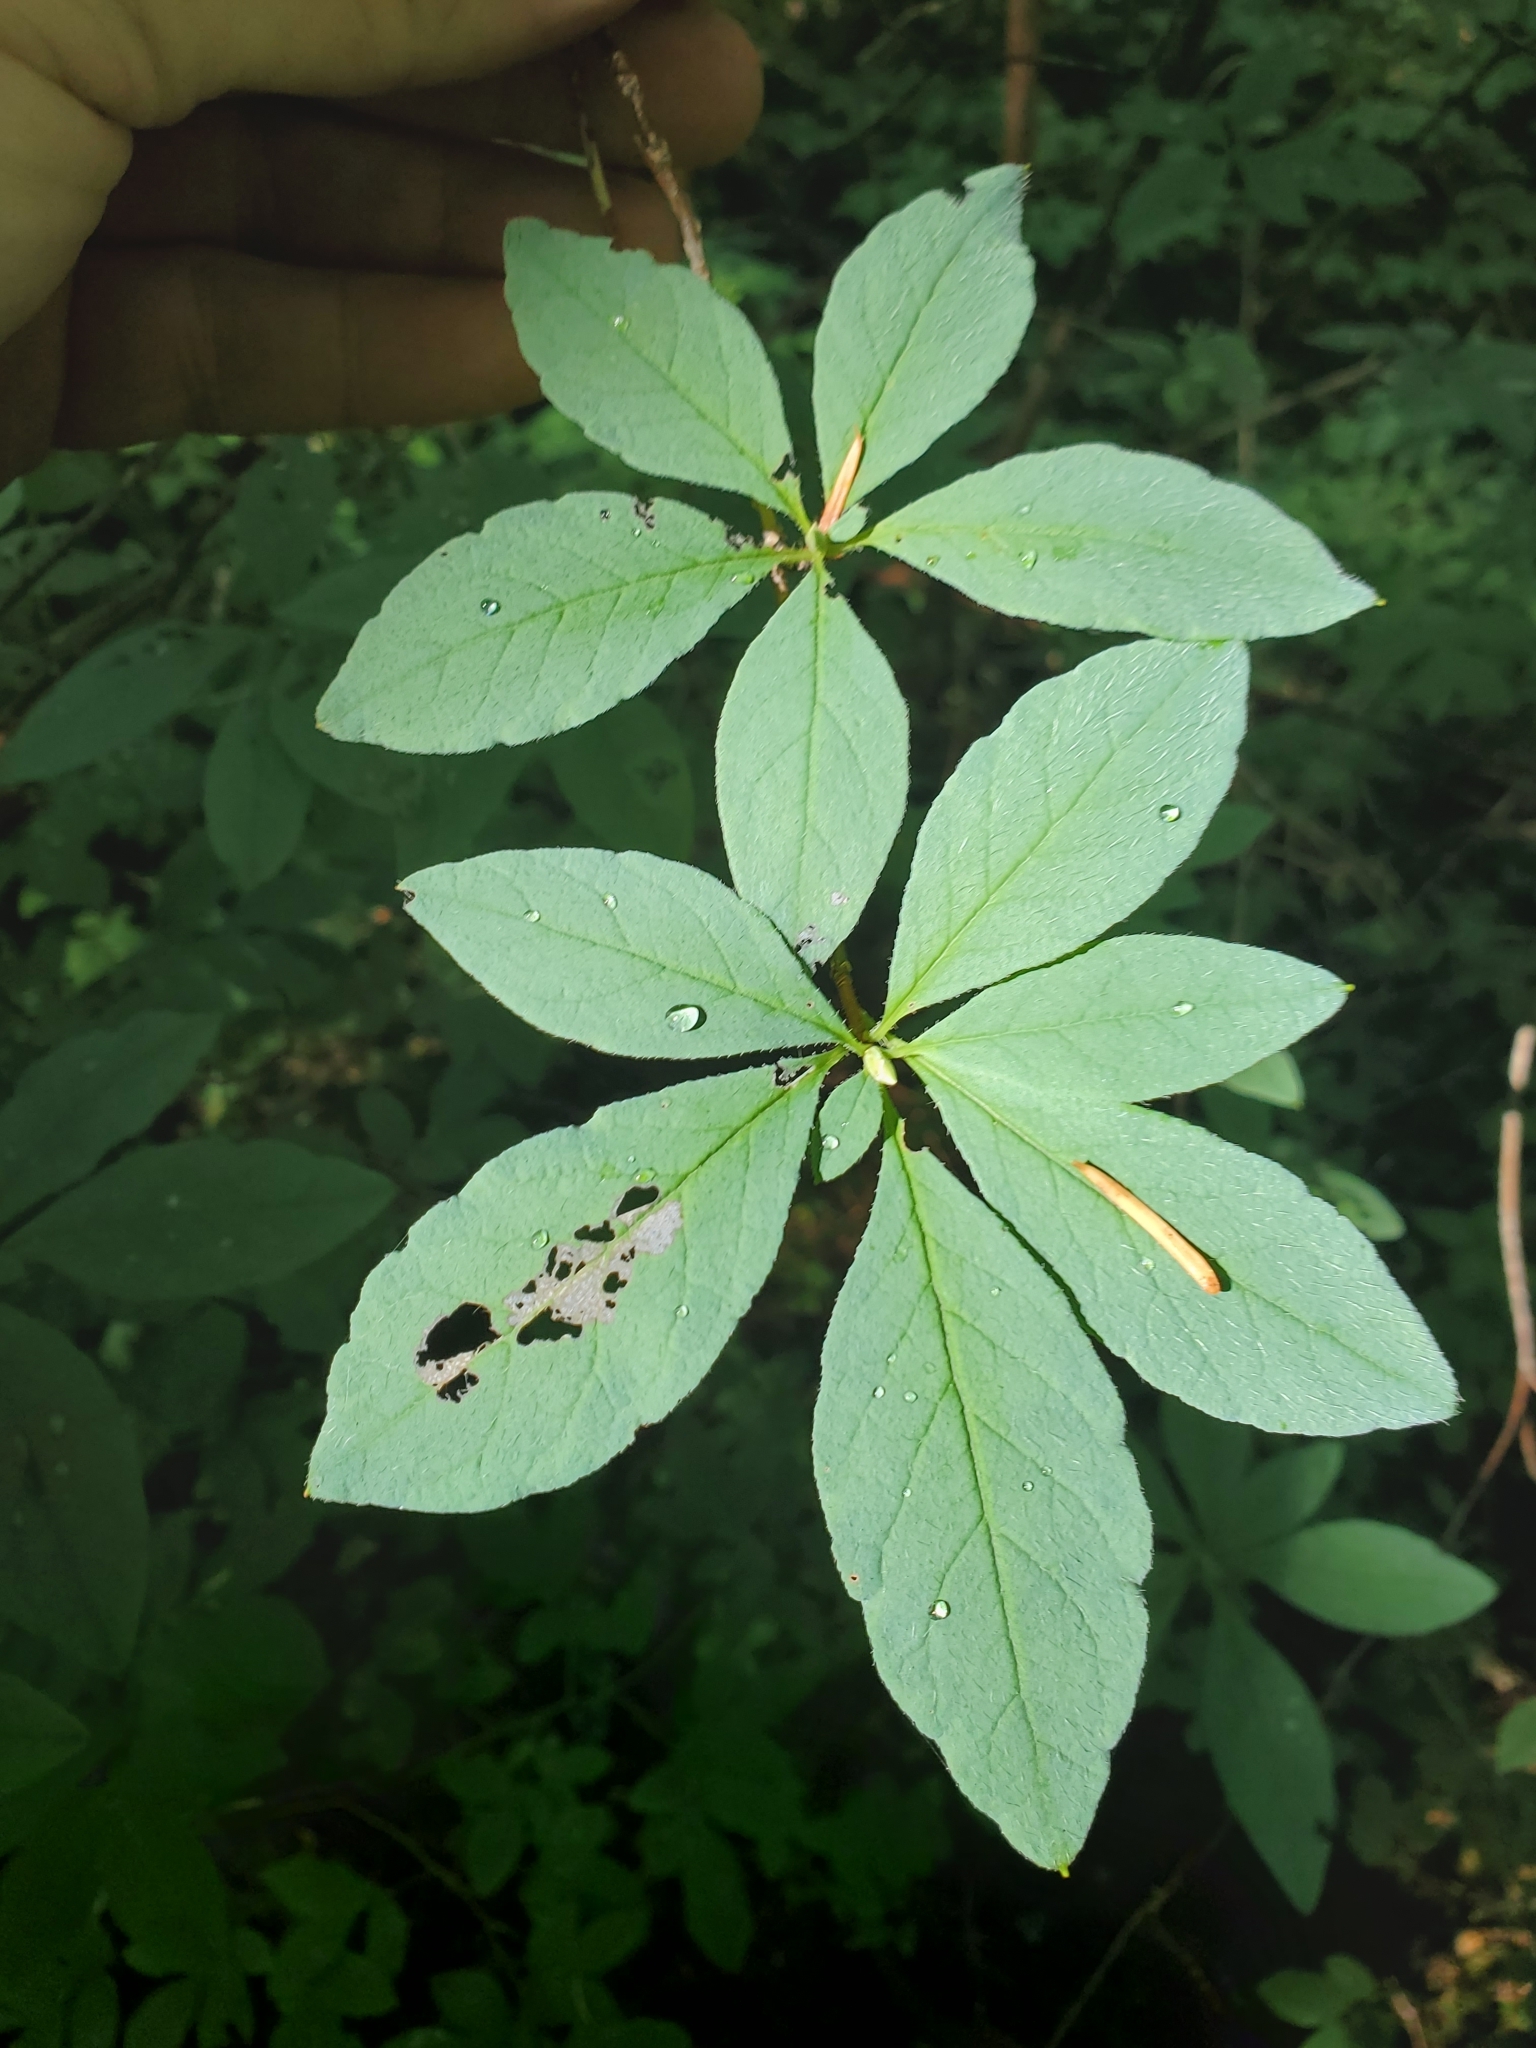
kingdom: Plantae
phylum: Tracheophyta
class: Magnoliopsida
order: Ericales
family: Ericaceae
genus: Rhododendron
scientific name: Rhododendron menziesii
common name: Pacific menziesia
